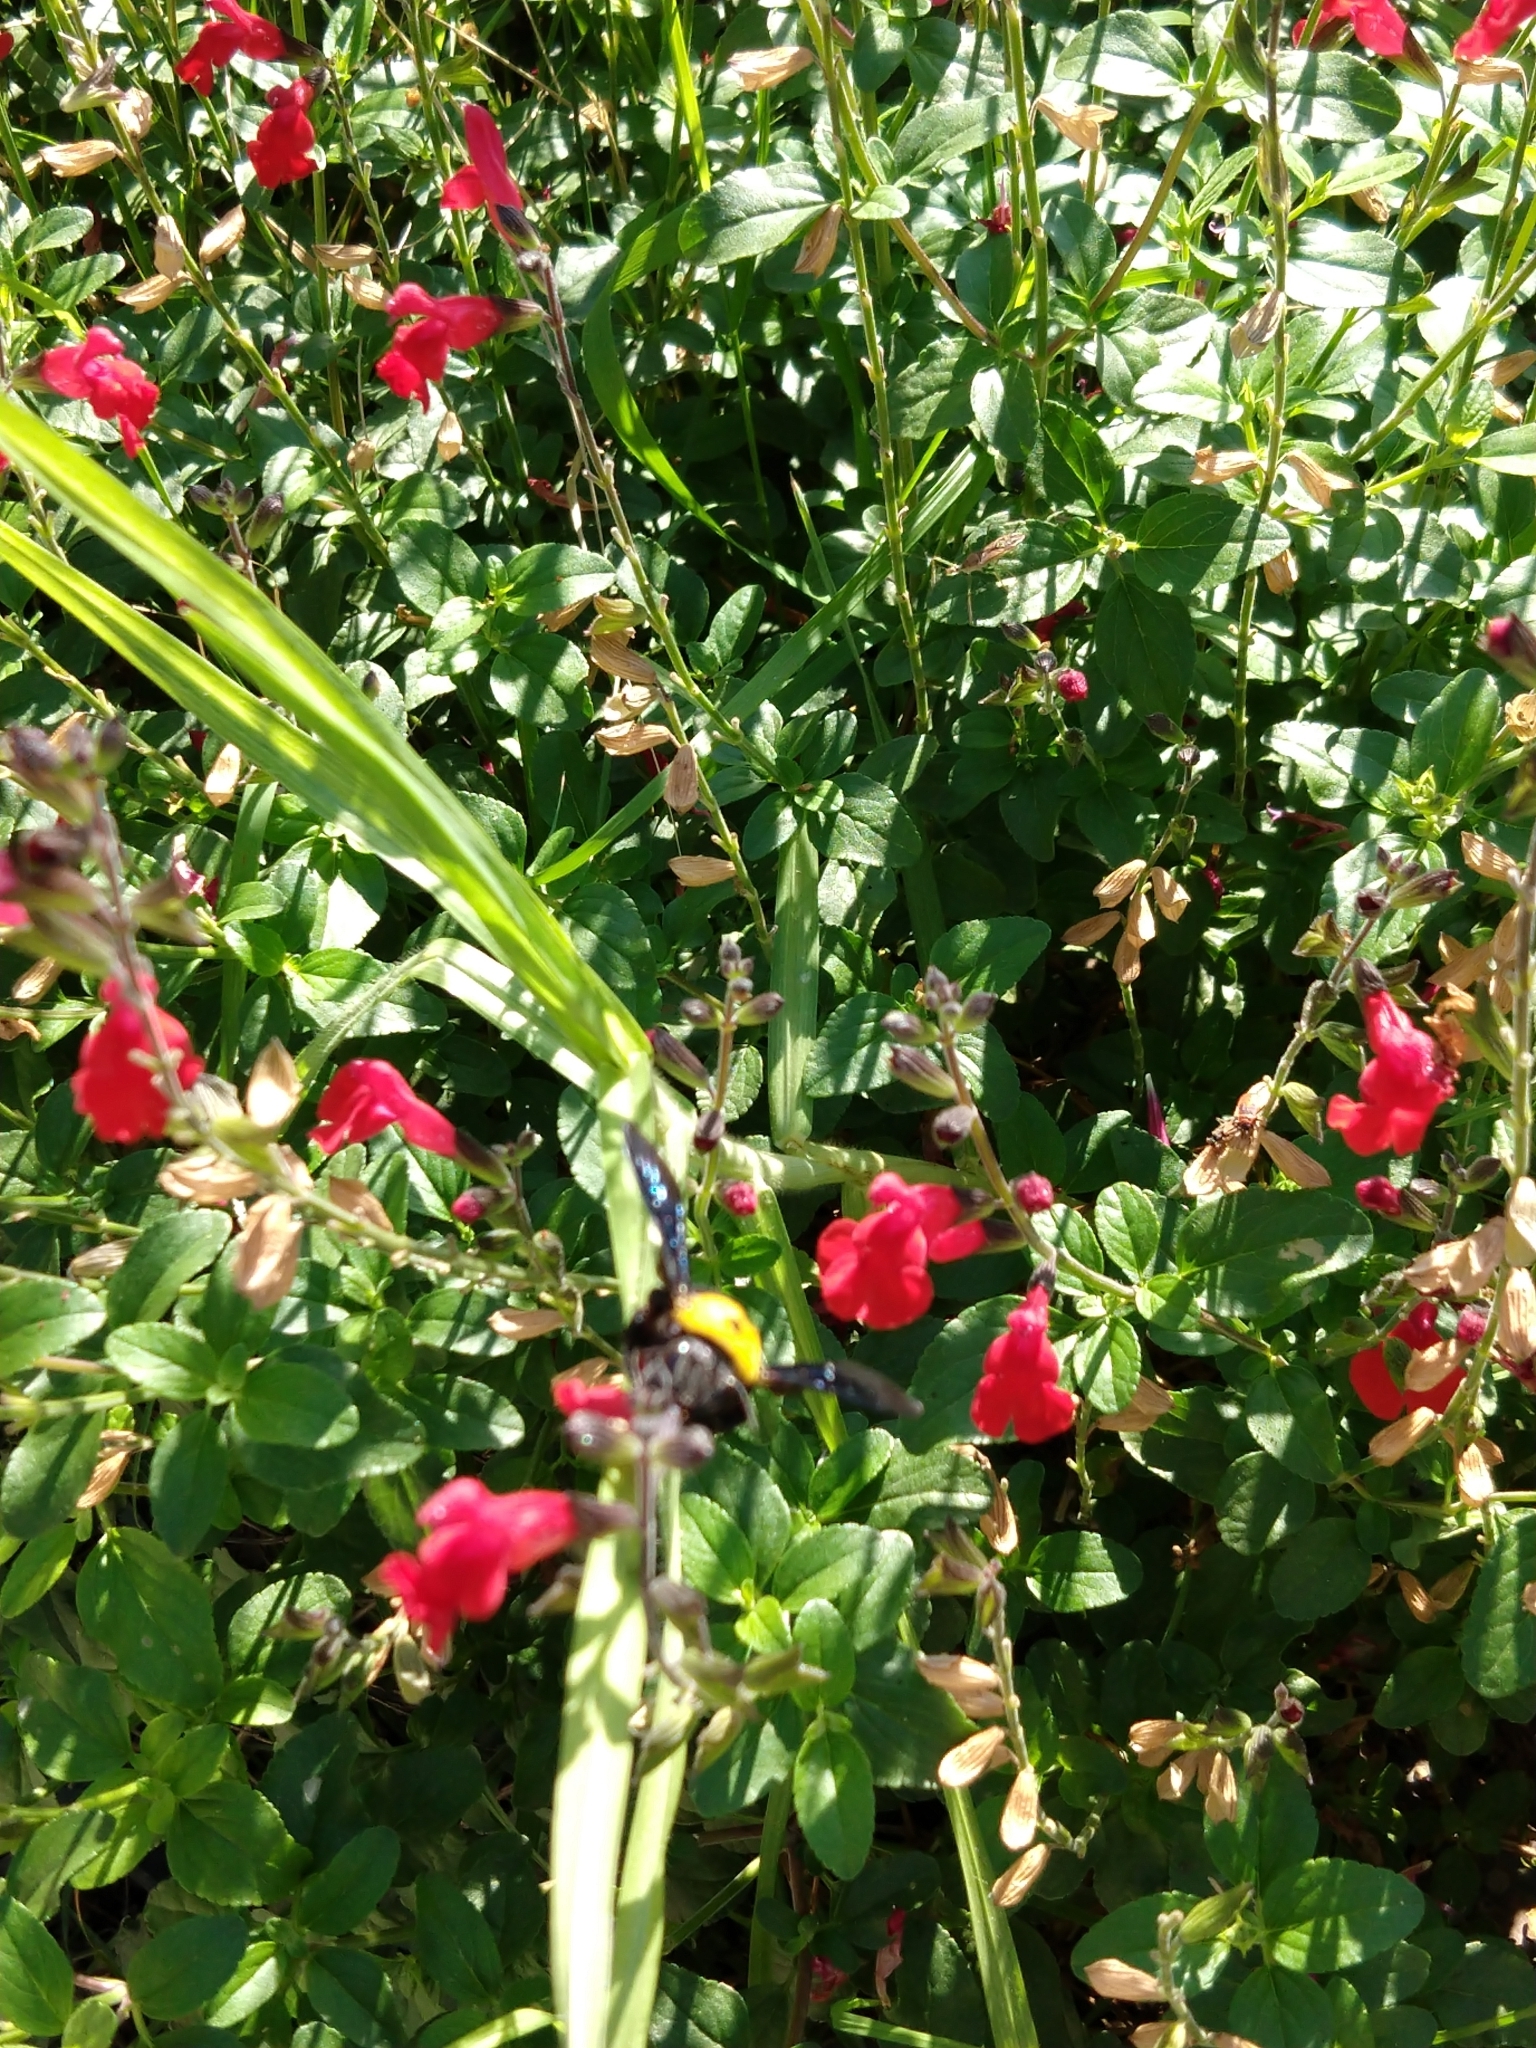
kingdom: Animalia
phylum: Arthropoda
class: Insecta
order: Hymenoptera
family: Apidae
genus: Xylocopa
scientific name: Xylocopa pubescens
